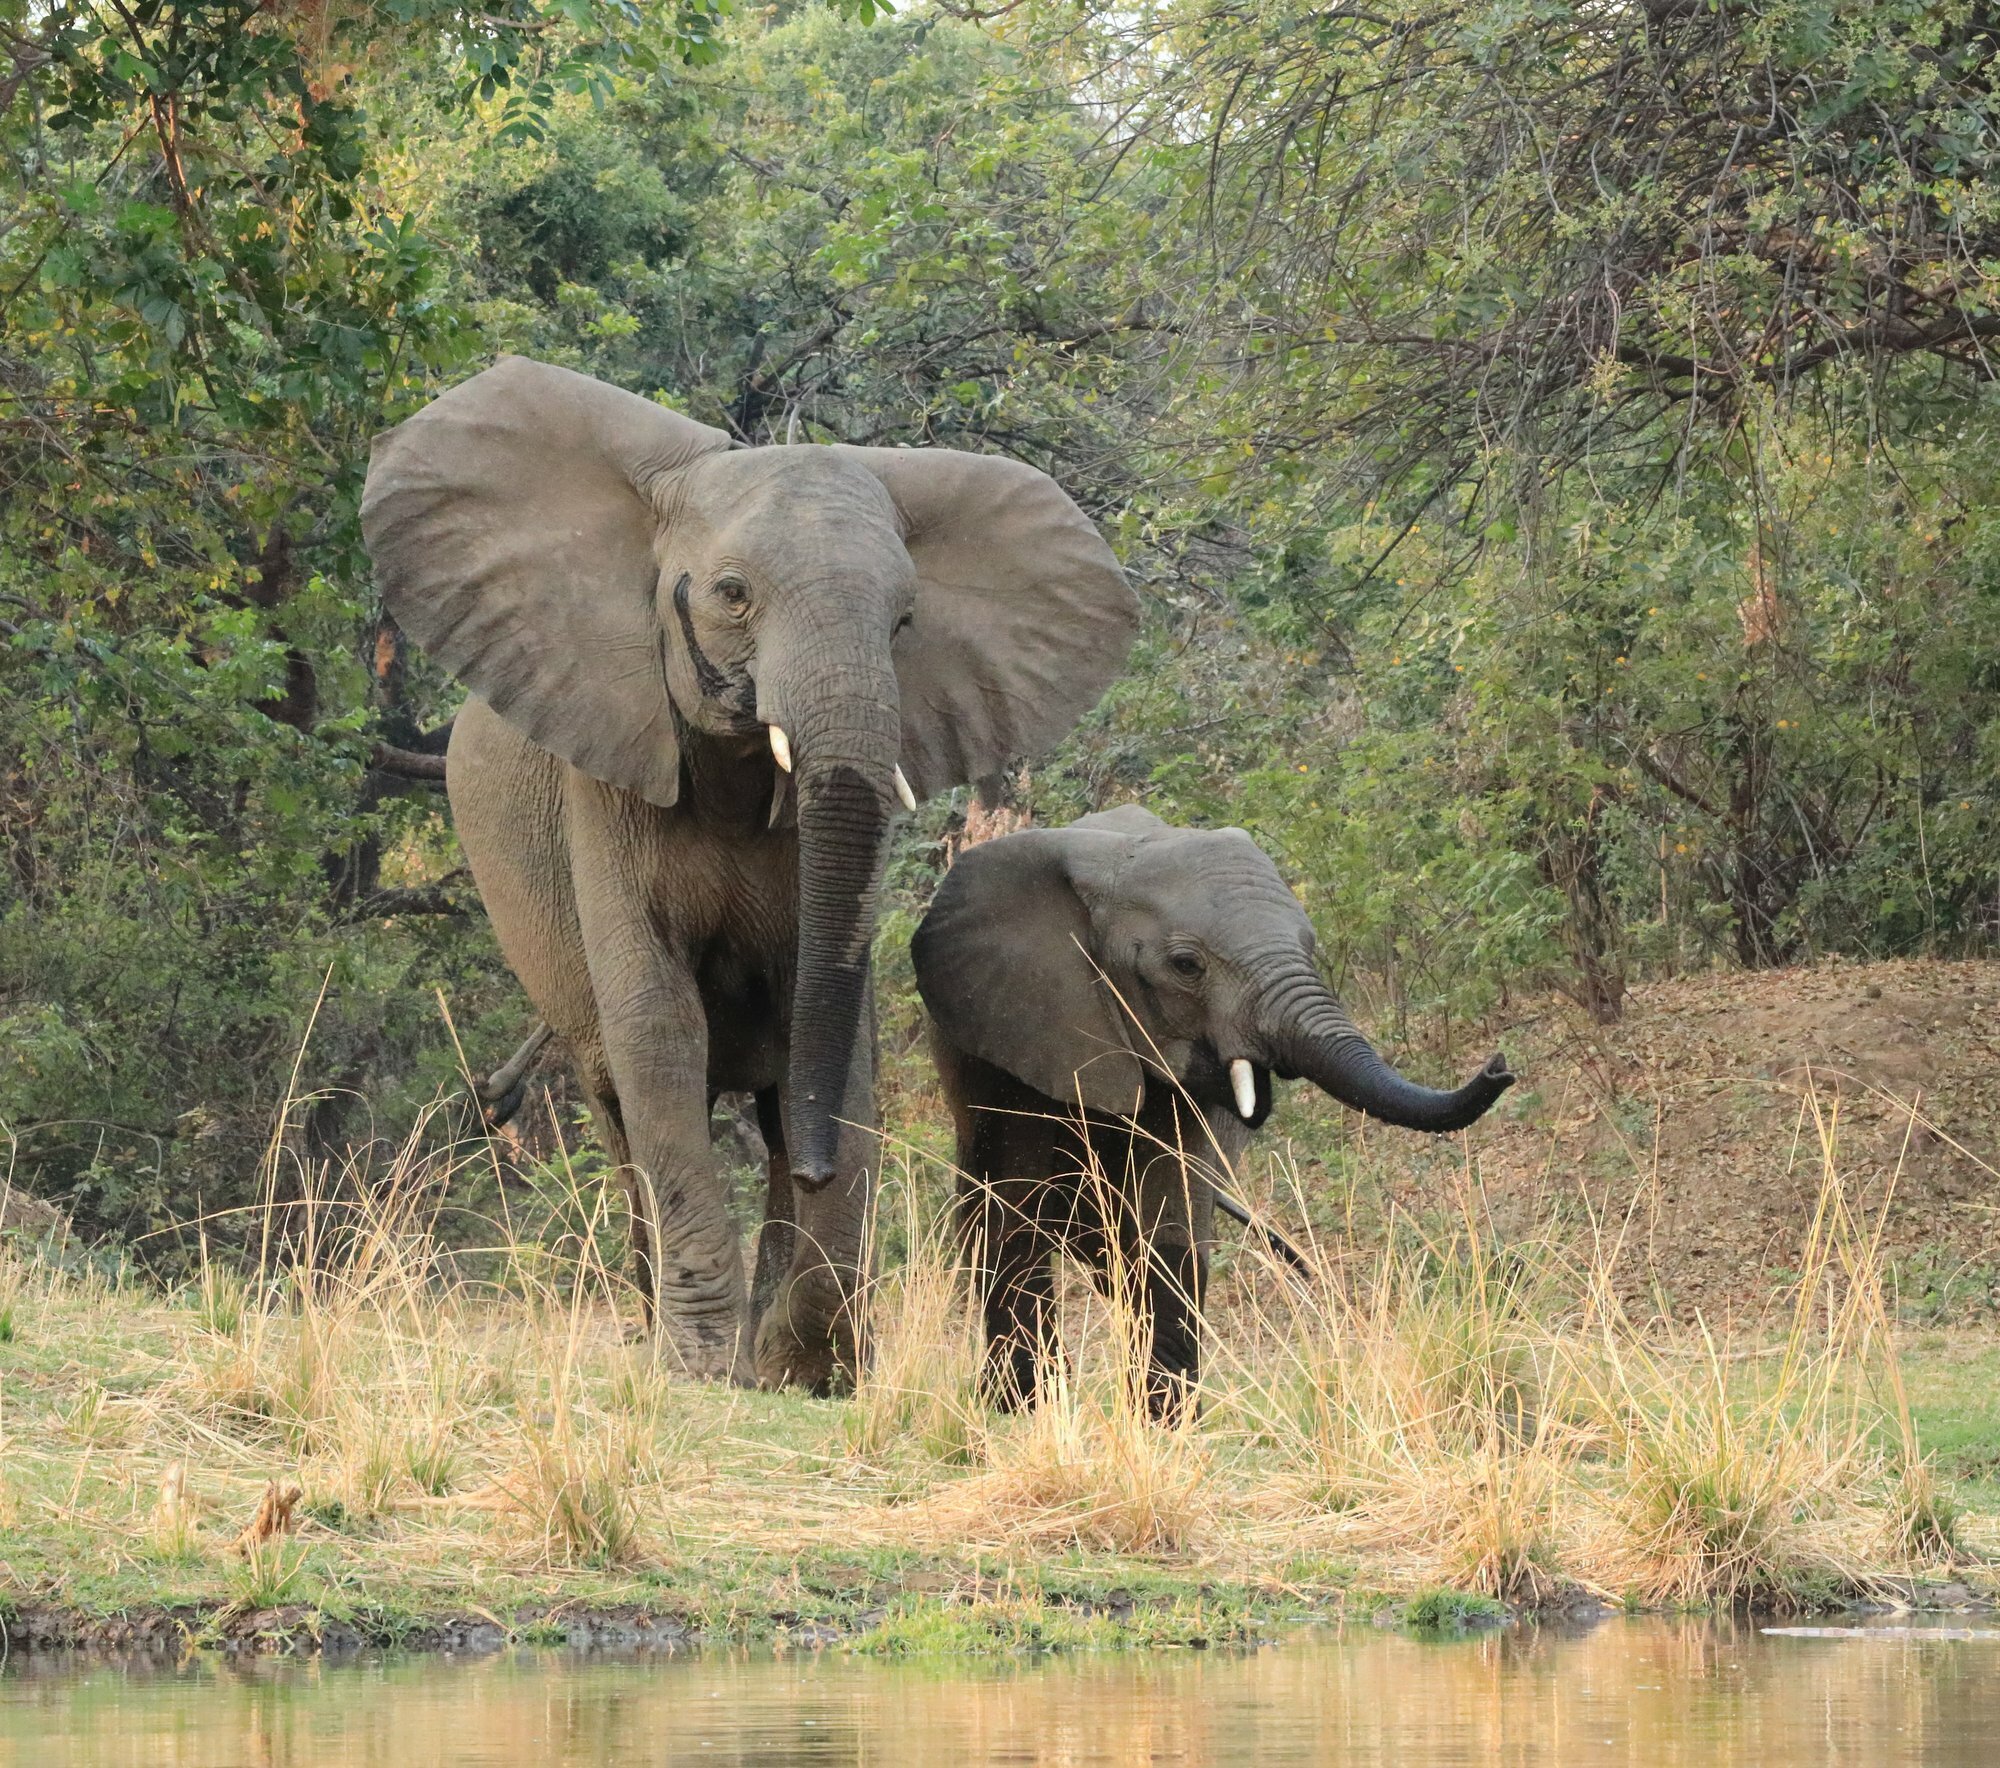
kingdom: Animalia
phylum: Chordata
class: Mammalia
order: Proboscidea
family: Elephantidae
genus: Loxodonta
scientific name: Loxodonta africana
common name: African elephant
